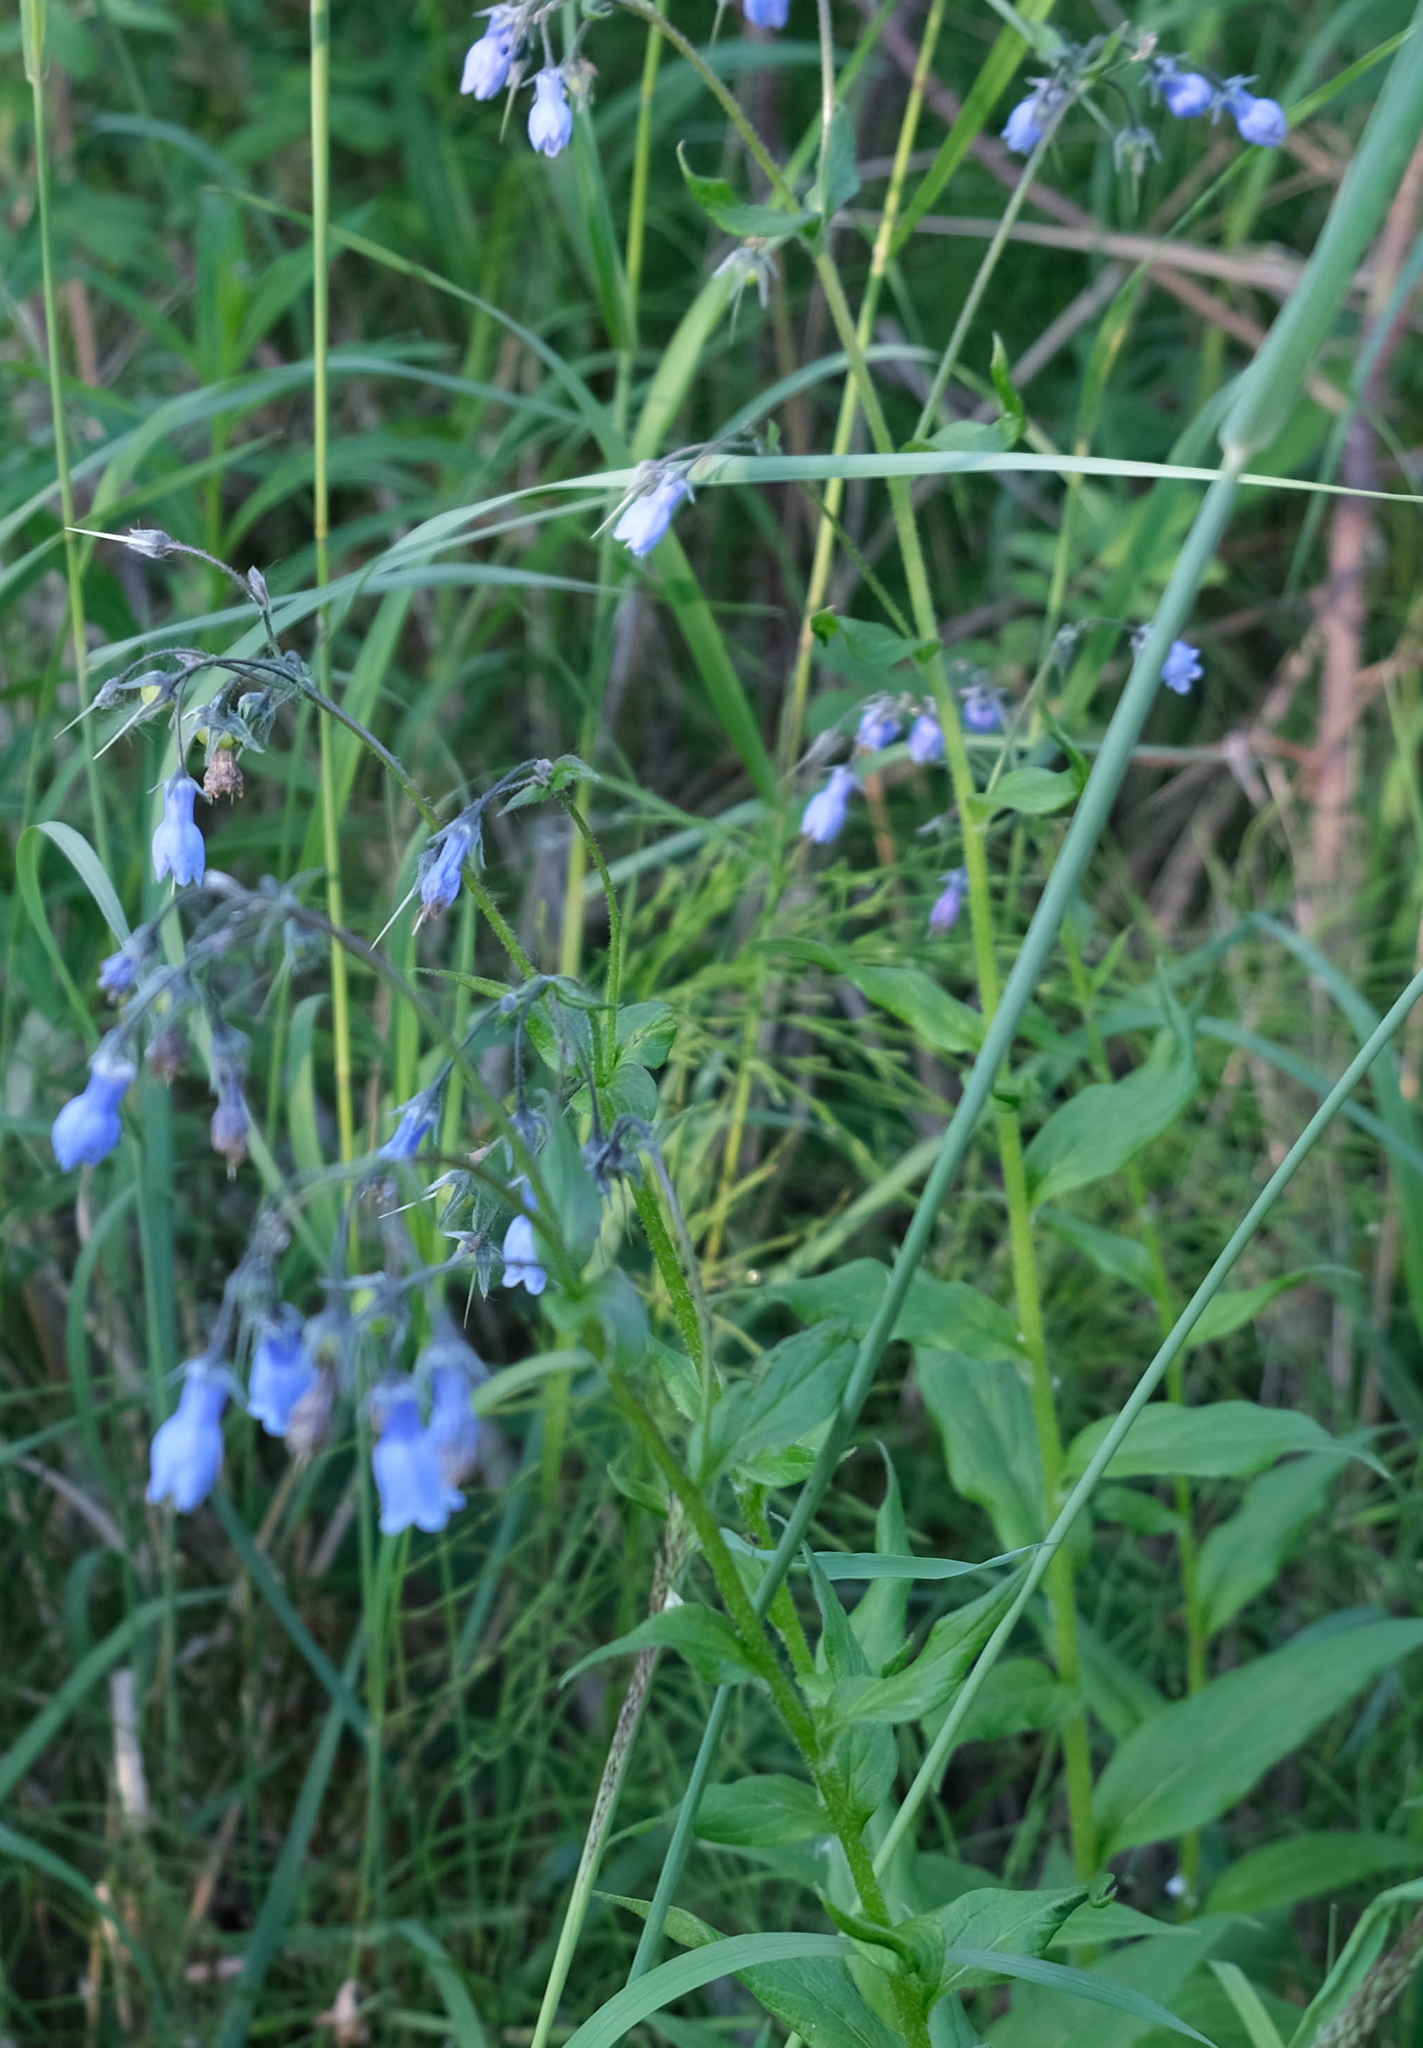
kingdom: Plantae
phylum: Tracheophyta
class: Magnoliopsida
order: Boraginales
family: Boraginaceae
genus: Mertensia
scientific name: Mertensia paniculata
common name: Panicled bluebells
